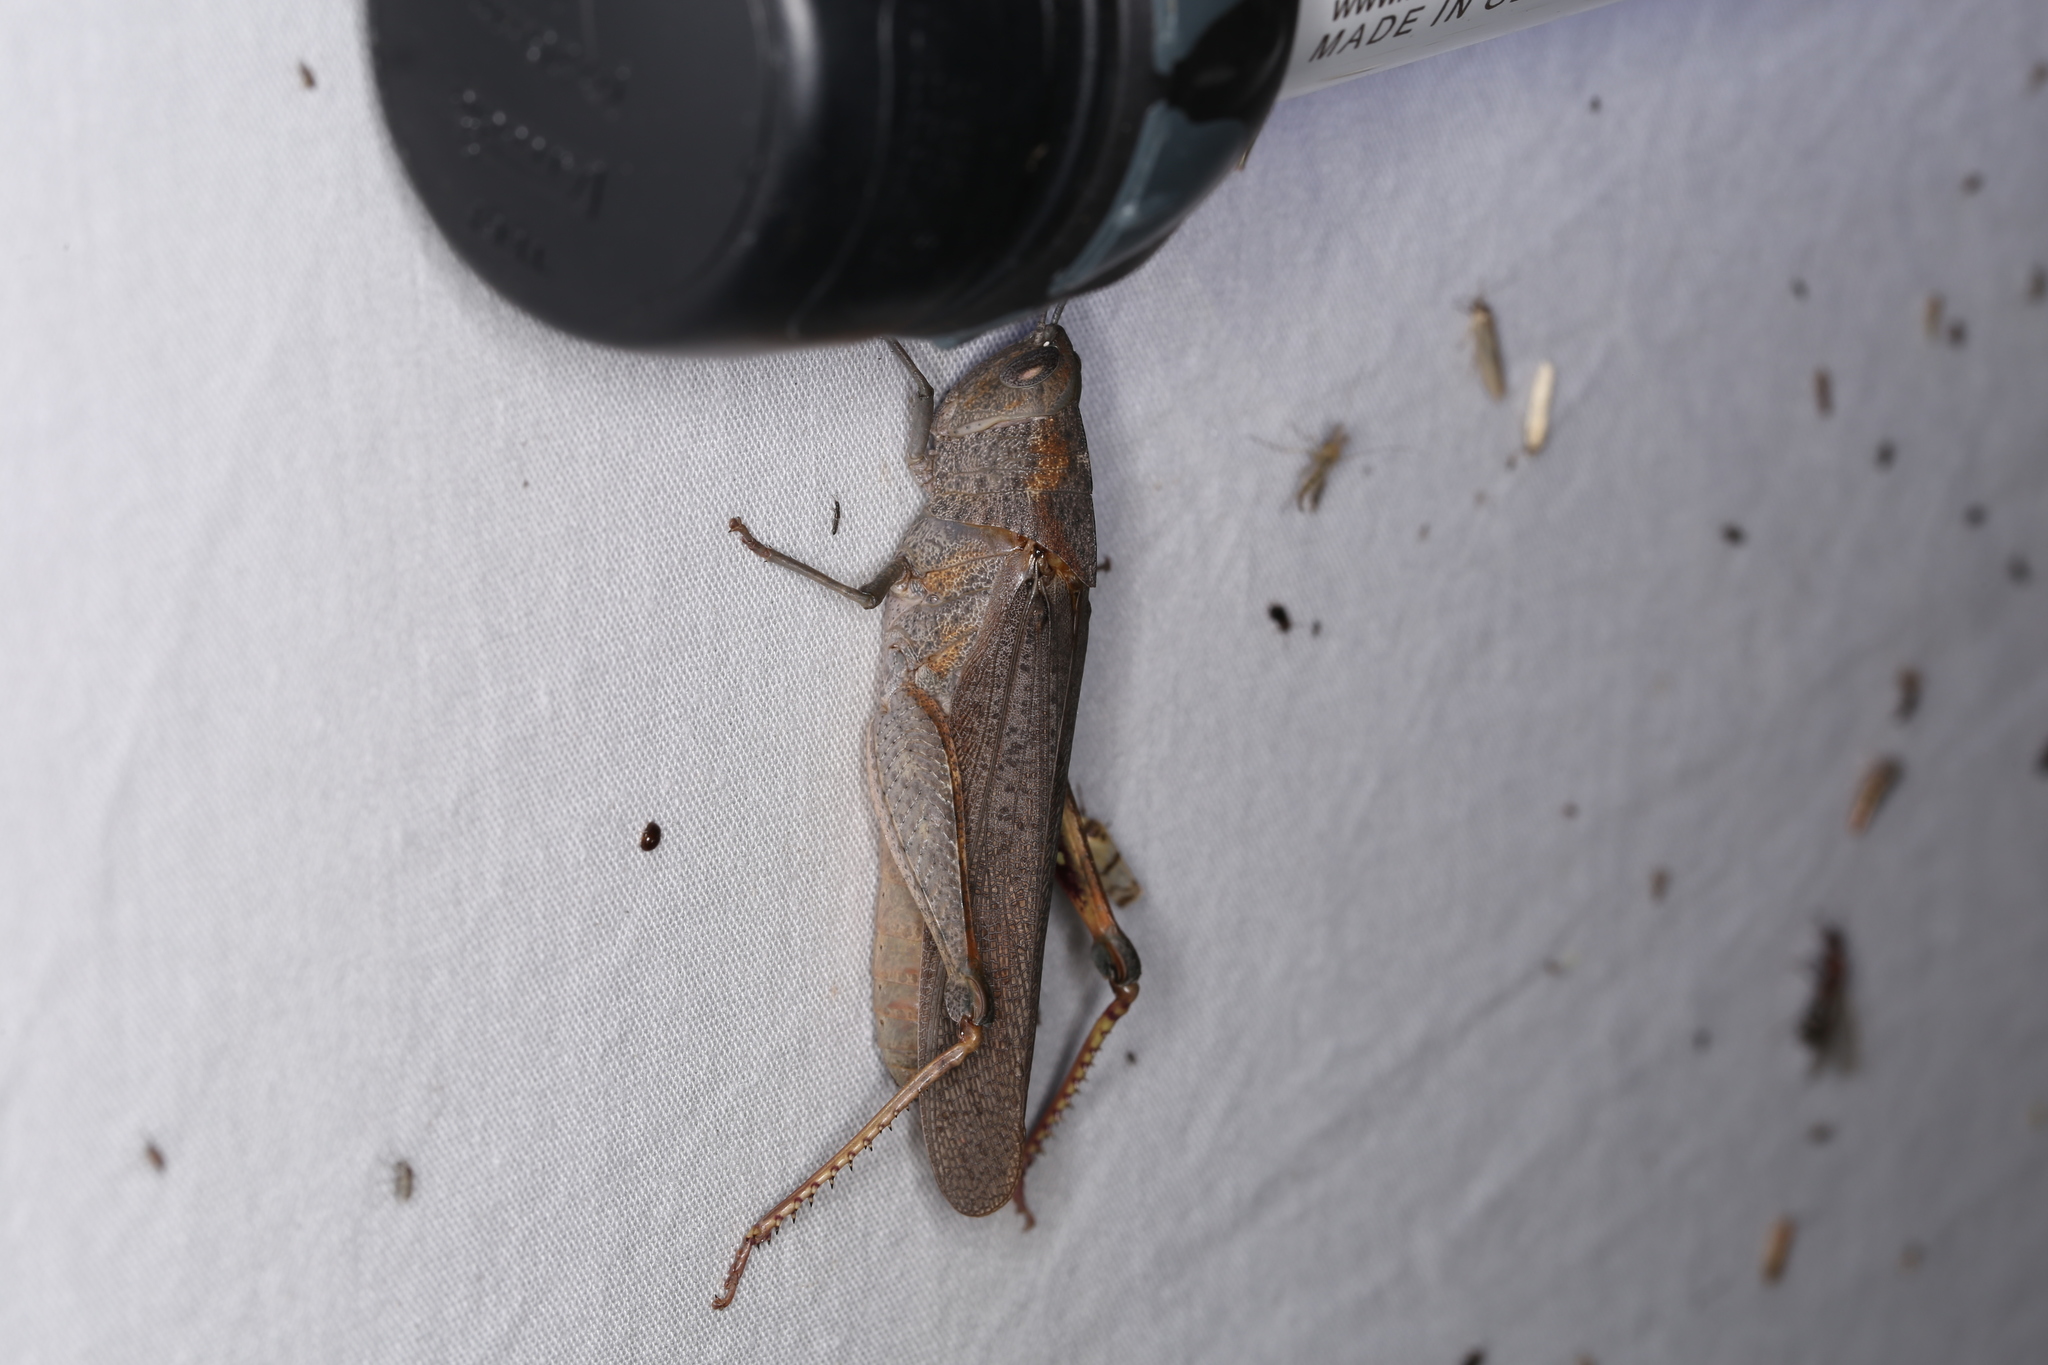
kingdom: Animalia
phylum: Arthropoda
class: Insecta
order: Orthoptera
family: Acrididae
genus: Peakesia
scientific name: Peakesia brunnea
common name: Grey peakesia
